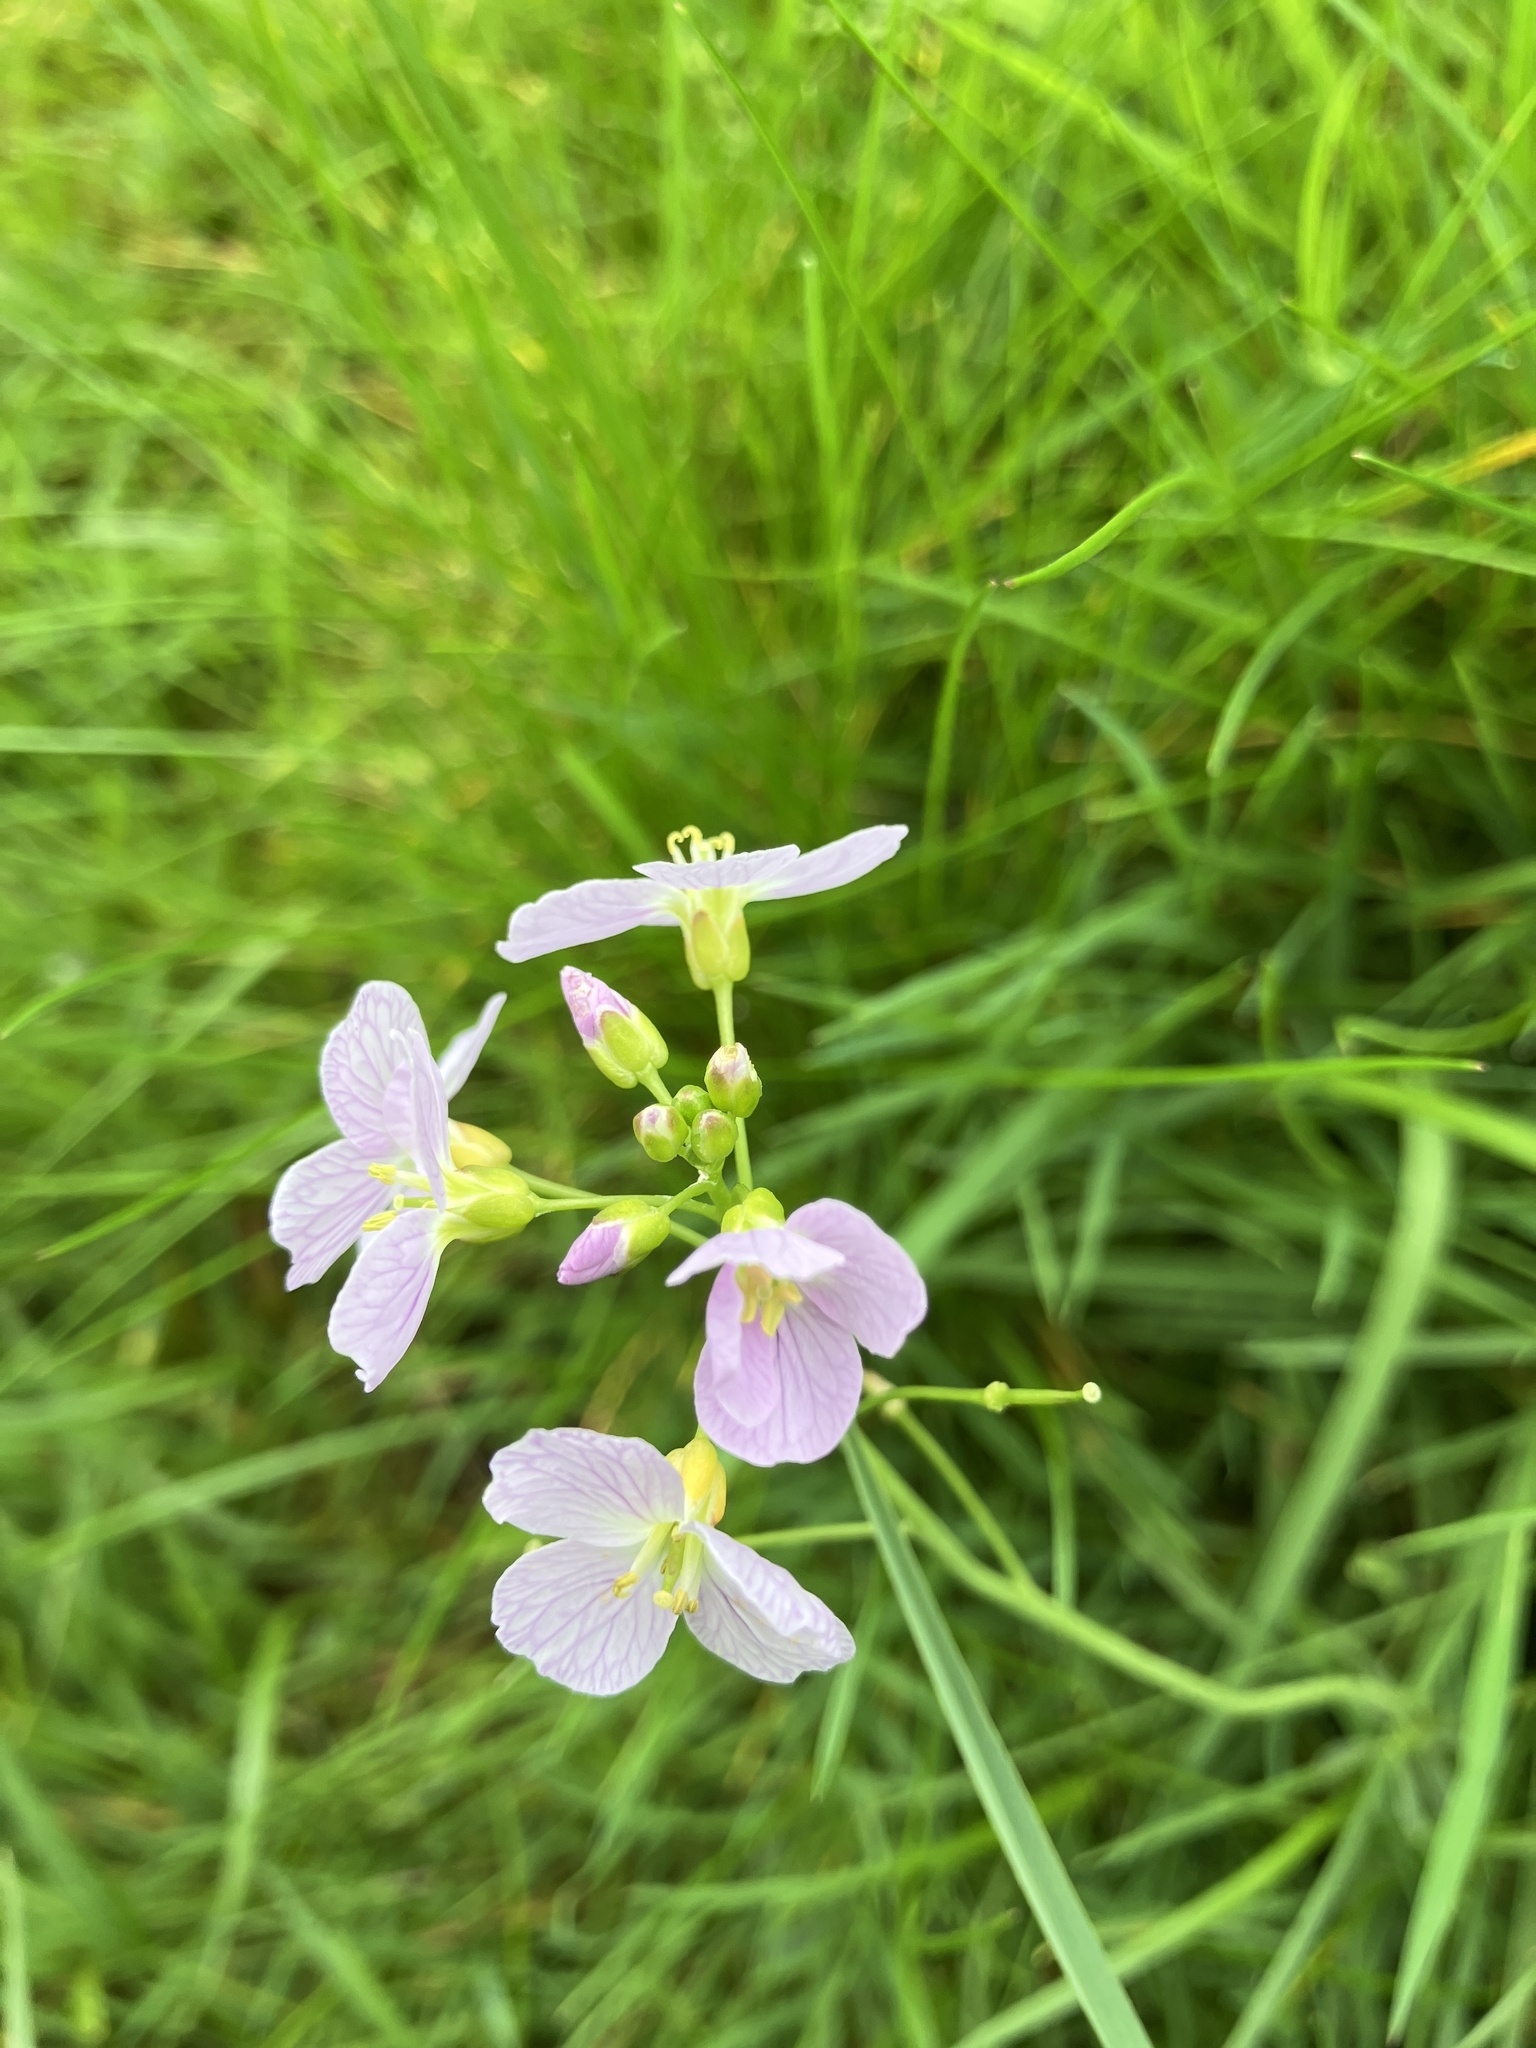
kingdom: Plantae
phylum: Tracheophyta
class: Magnoliopsida
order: Brassicales
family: Brassicaceae
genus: Cardamine
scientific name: Cardamine pratensis
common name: Cuckoo flower
